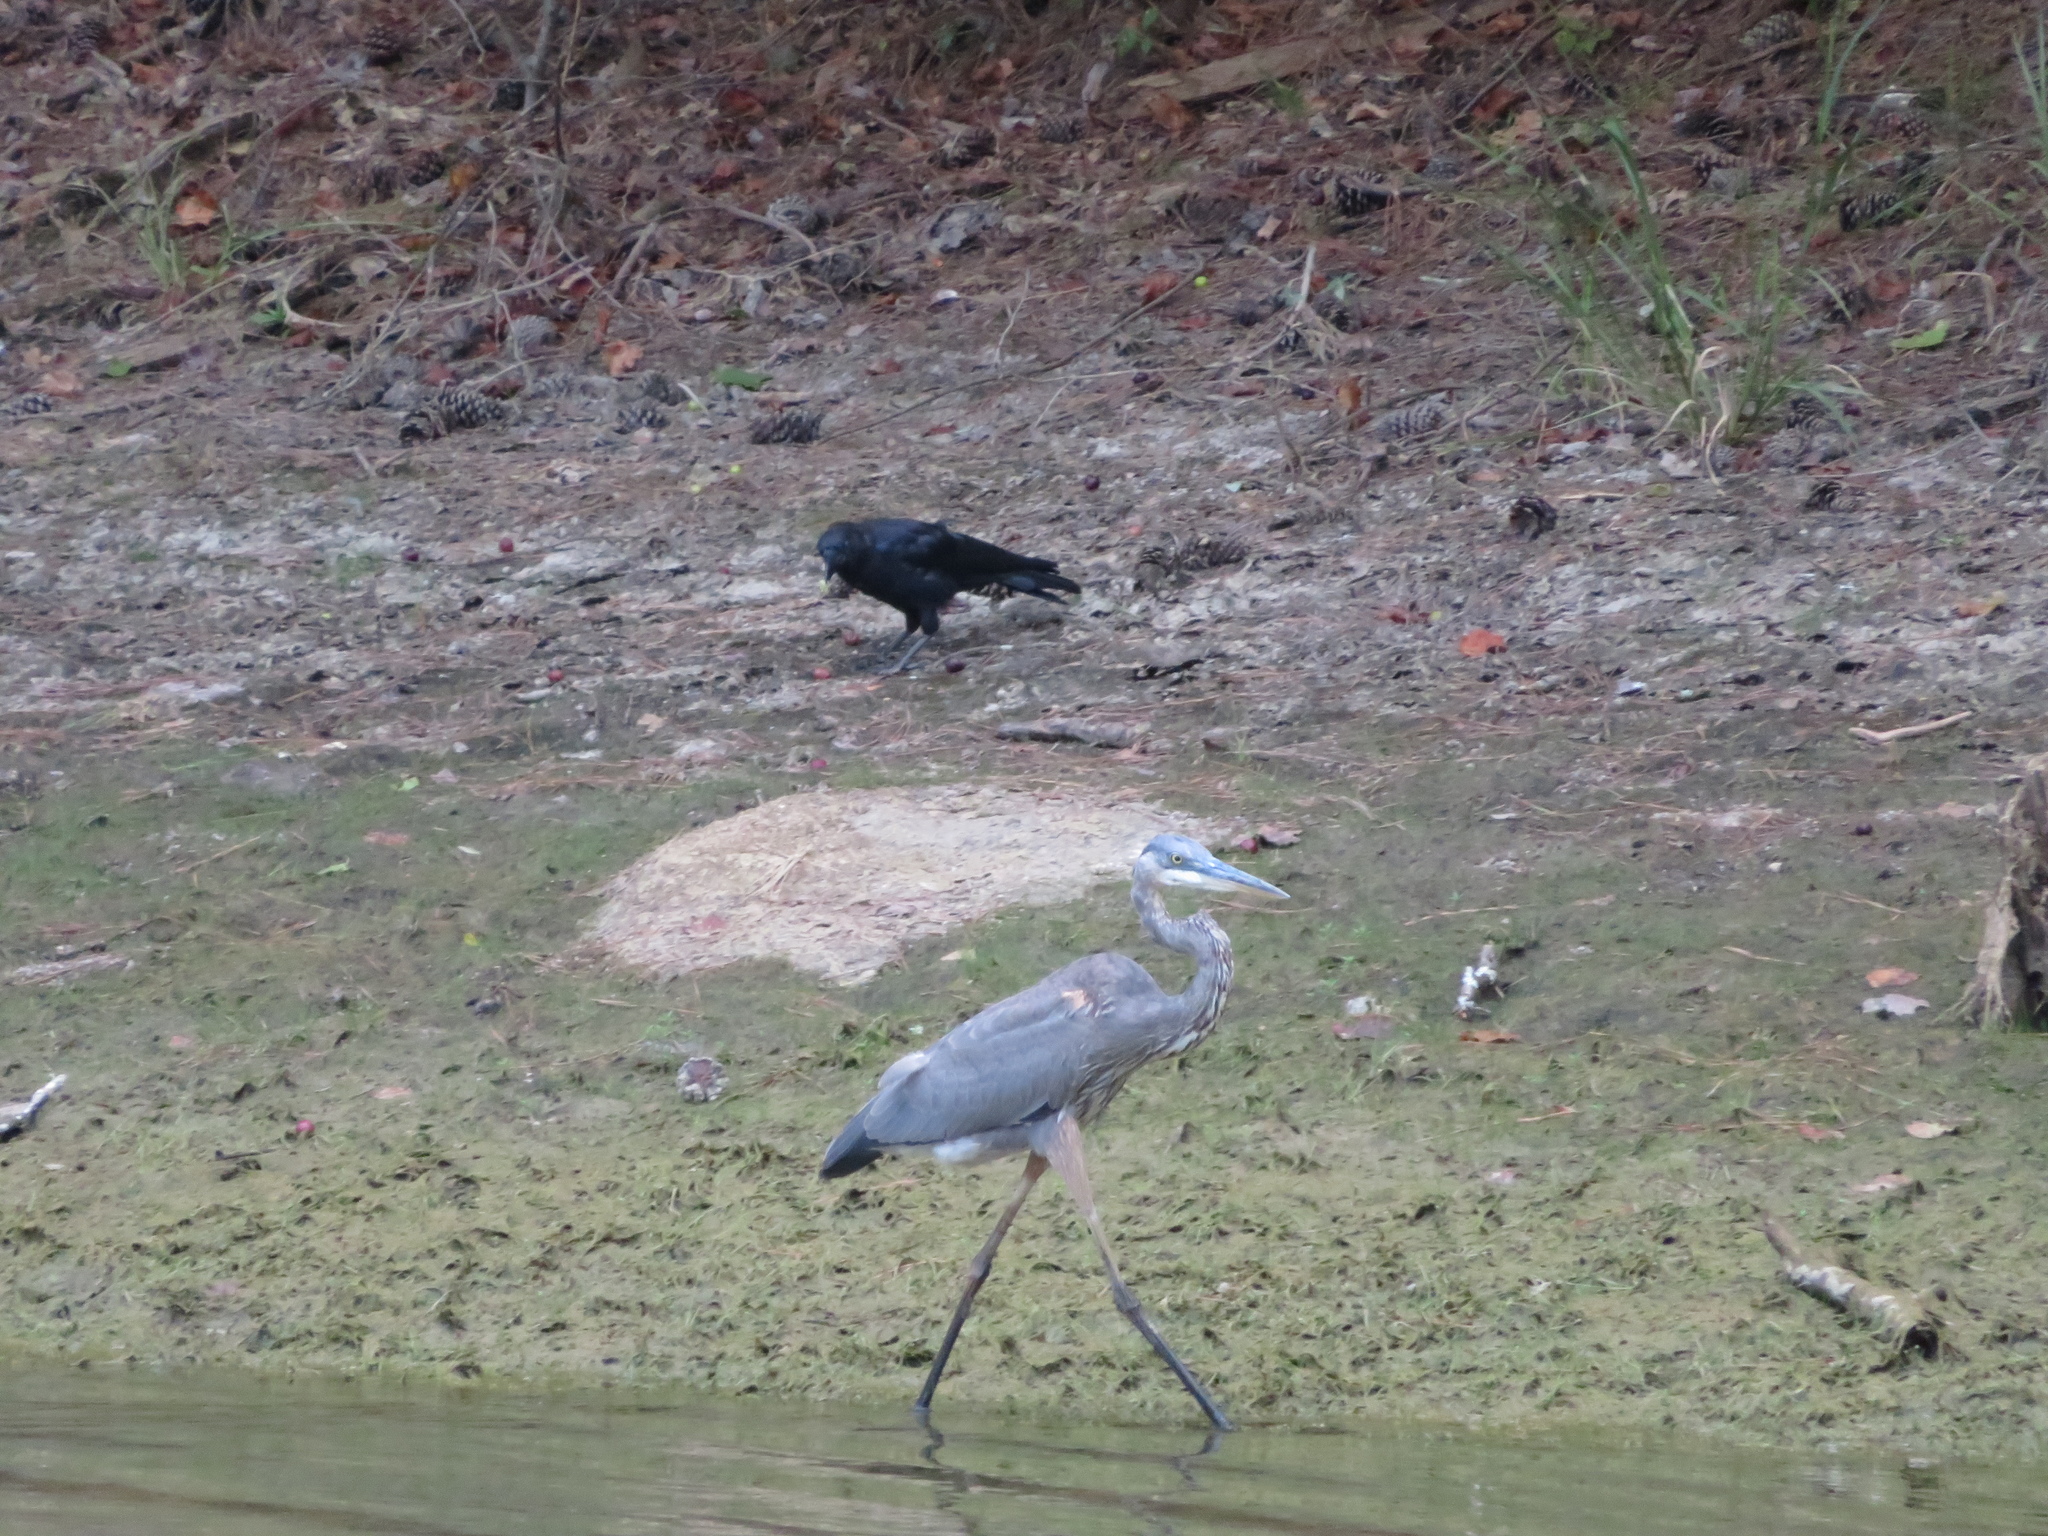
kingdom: Animalia
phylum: Chordata
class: Aves
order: Pelecaniformes
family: Ardeidae
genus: Ardea
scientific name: Ardea herodias
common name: Great blue heron
